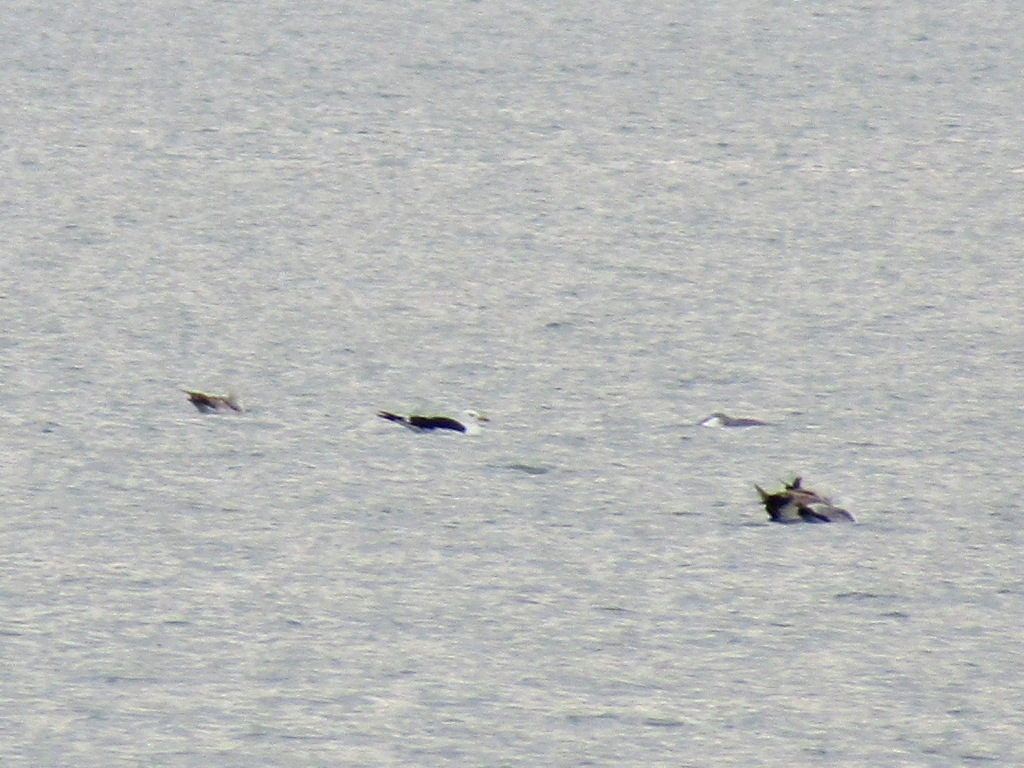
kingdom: Animalia
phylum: Chordata
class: Aves
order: Charadriiformes
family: Laridae
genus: Larus
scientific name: Larus fuscus
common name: Lesser black-backed gull
